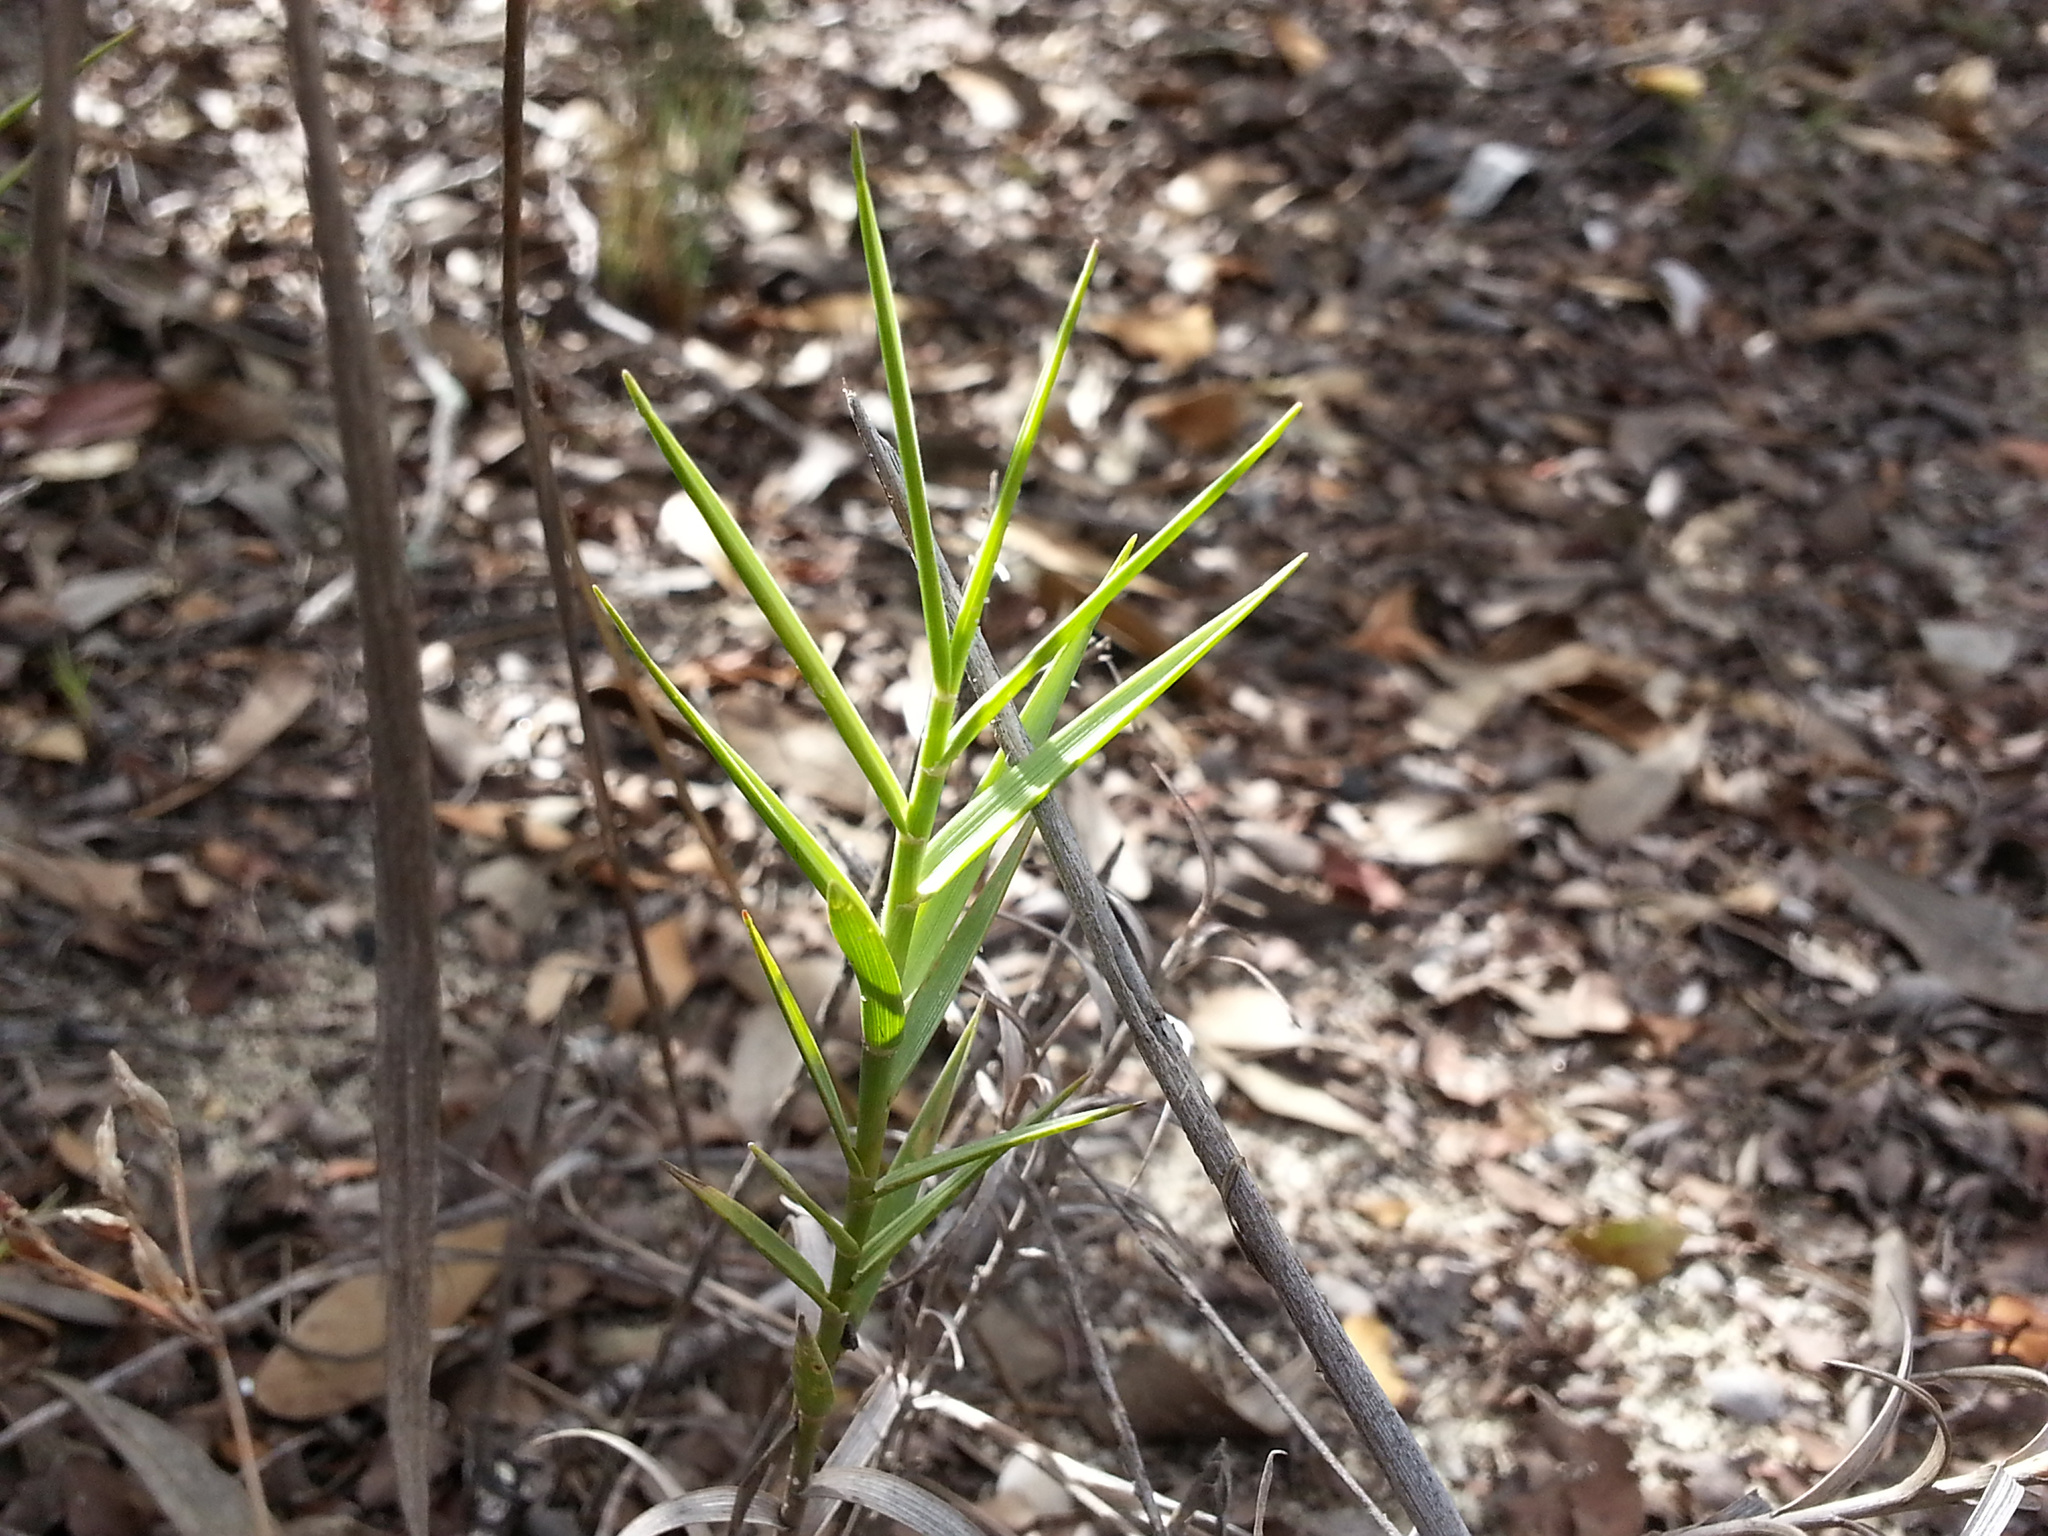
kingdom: Plantae
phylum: Tracheophyta
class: Liliopsida
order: Poales
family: Poaceae
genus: Tristachya
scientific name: Tristachya humbertii
